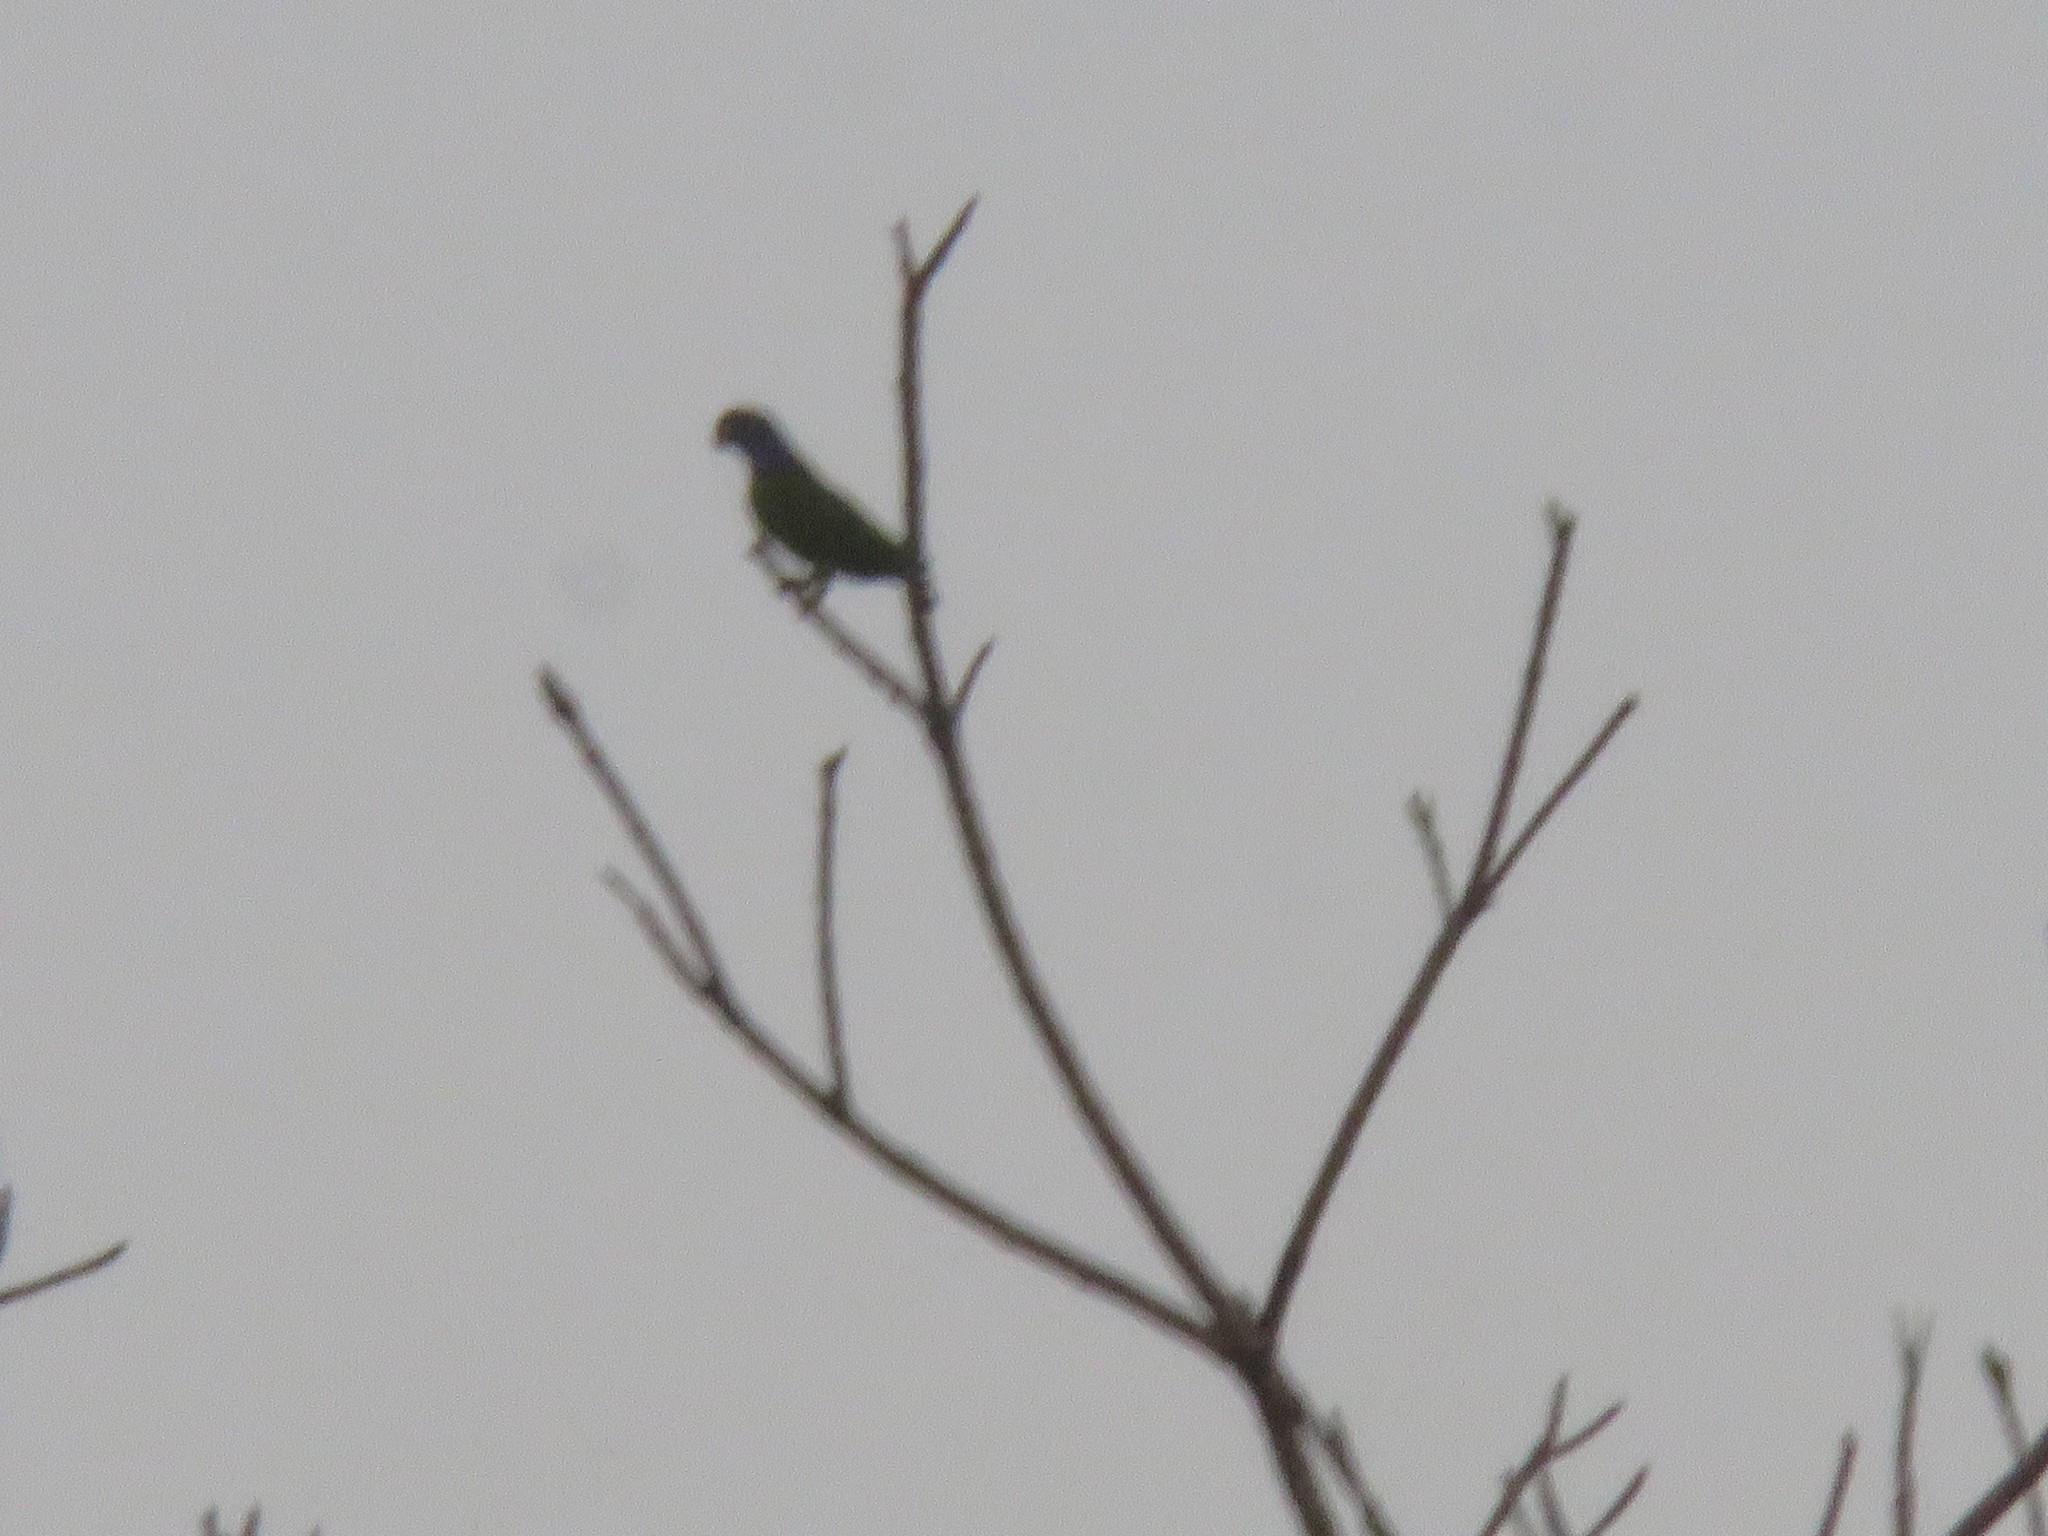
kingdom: Animalia
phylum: Chordata
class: Aves
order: Psittaciformes
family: Psittacidae
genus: Pionus
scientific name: Pionus menstruus
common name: Blue-headed parrot
